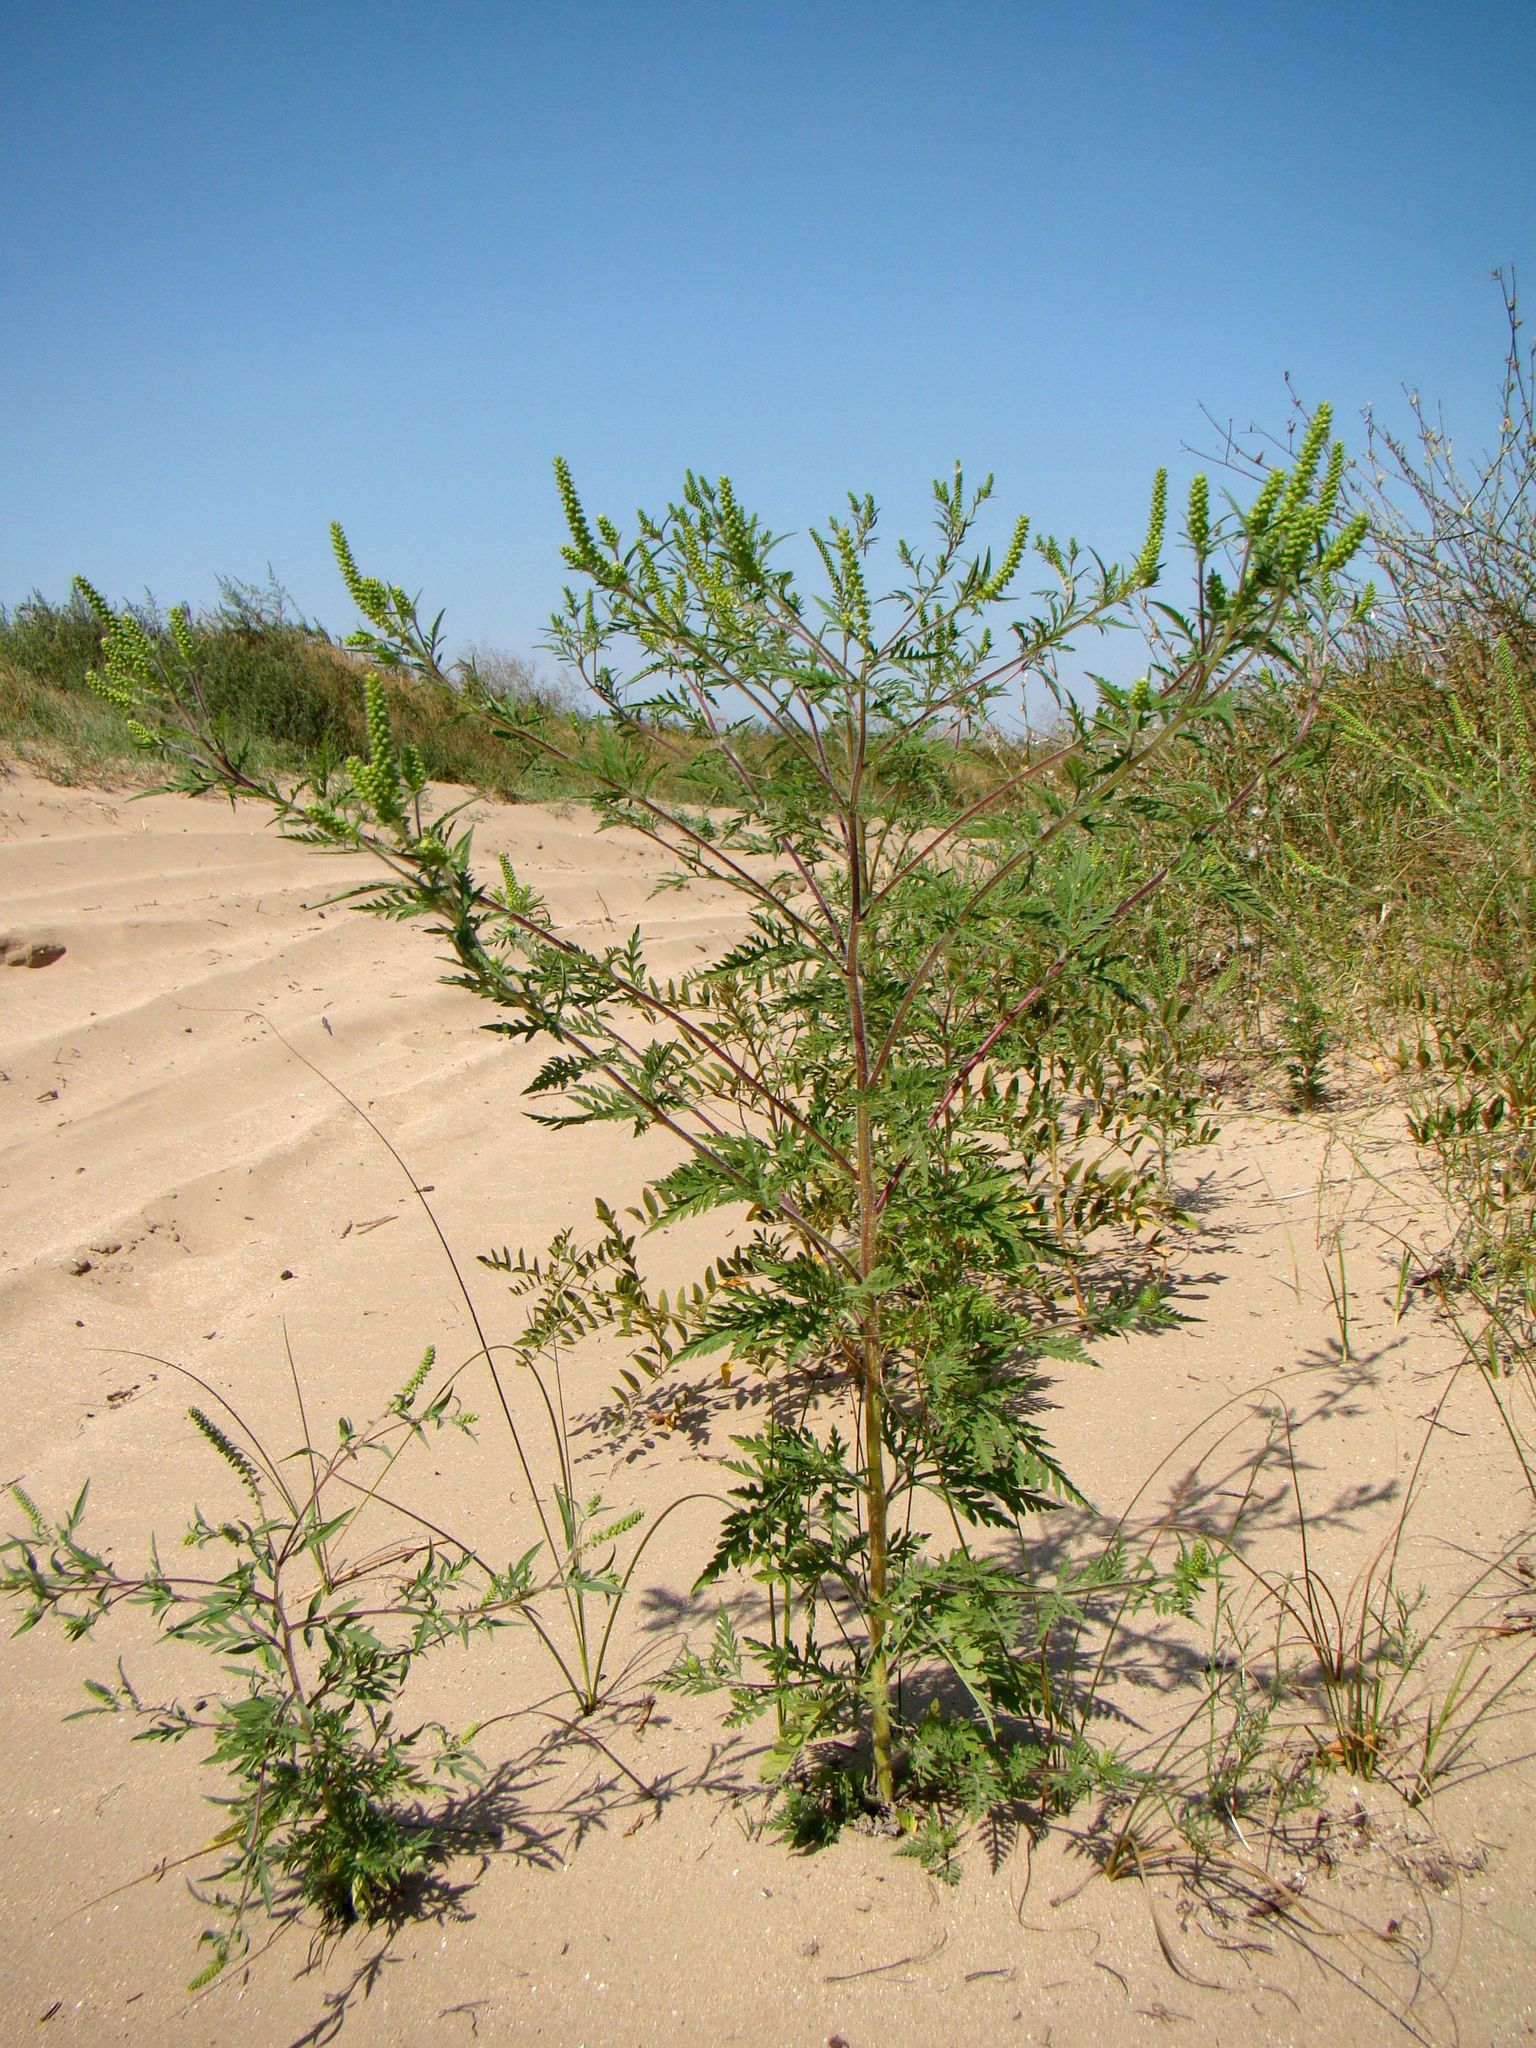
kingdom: Plantae
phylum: Tracheophyta
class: Magnoliopsida
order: Asterales
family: Asteraceae
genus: Ambrosia
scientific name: Ambrosia artemisiifolia
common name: Annual ragweed
